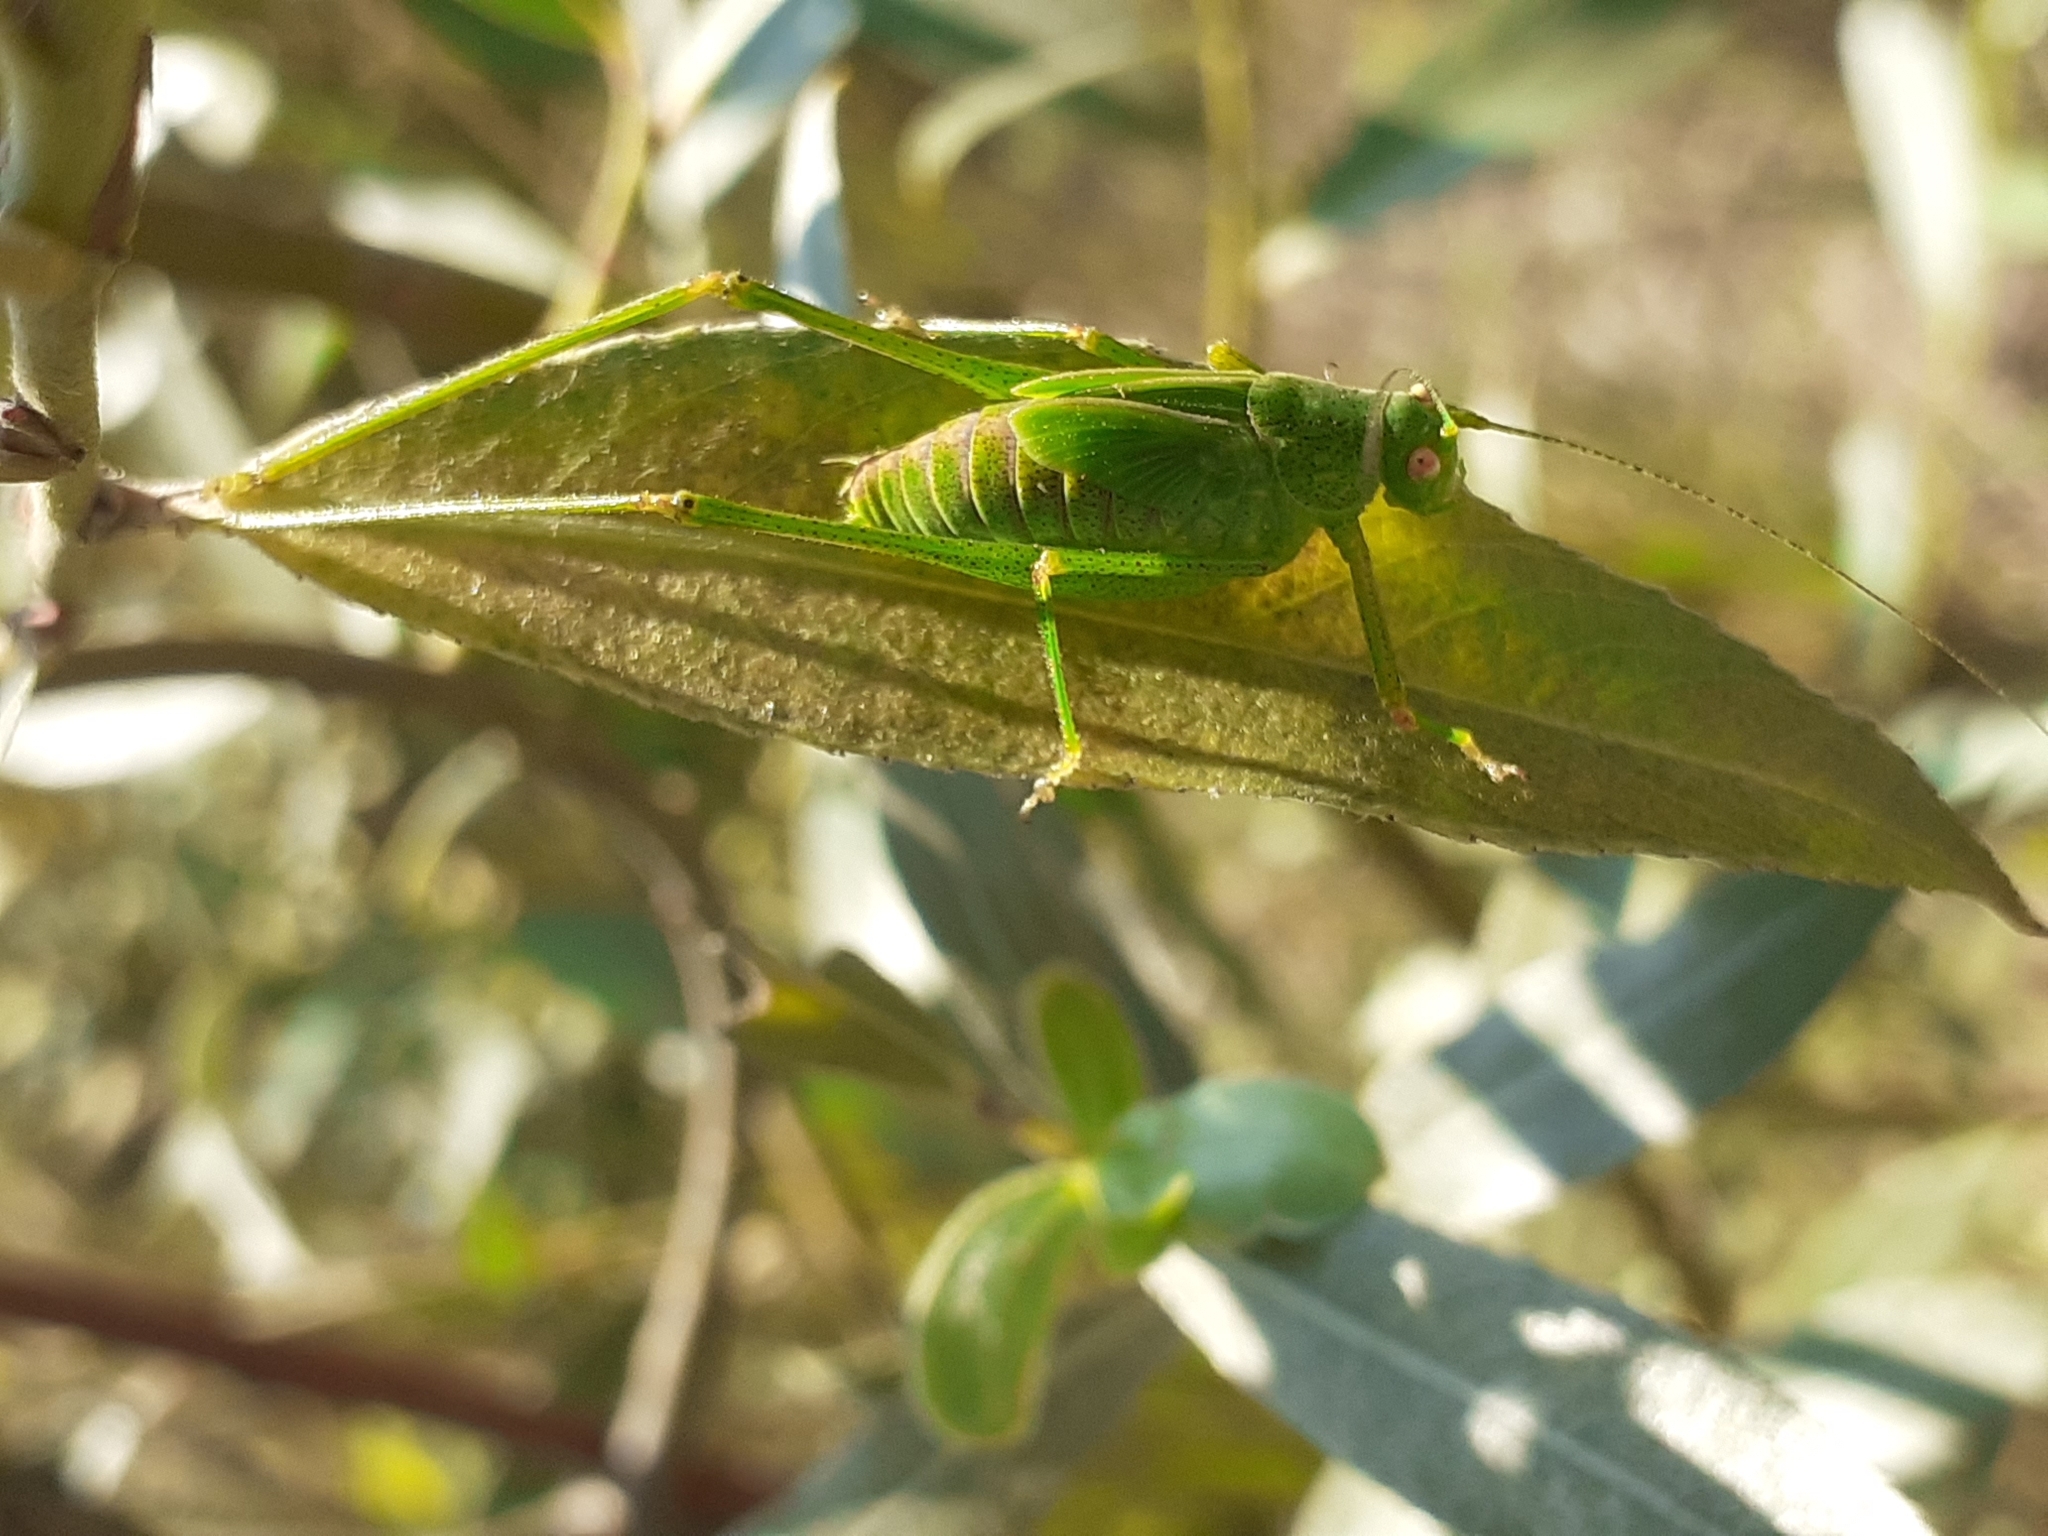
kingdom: Animalia
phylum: Arthropoda
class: Insecta
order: Orthoptera
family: Tettigoniidae
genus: Phaneroptera
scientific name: Phaneroptera falcata
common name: Sickle-bearing bush-cricket
